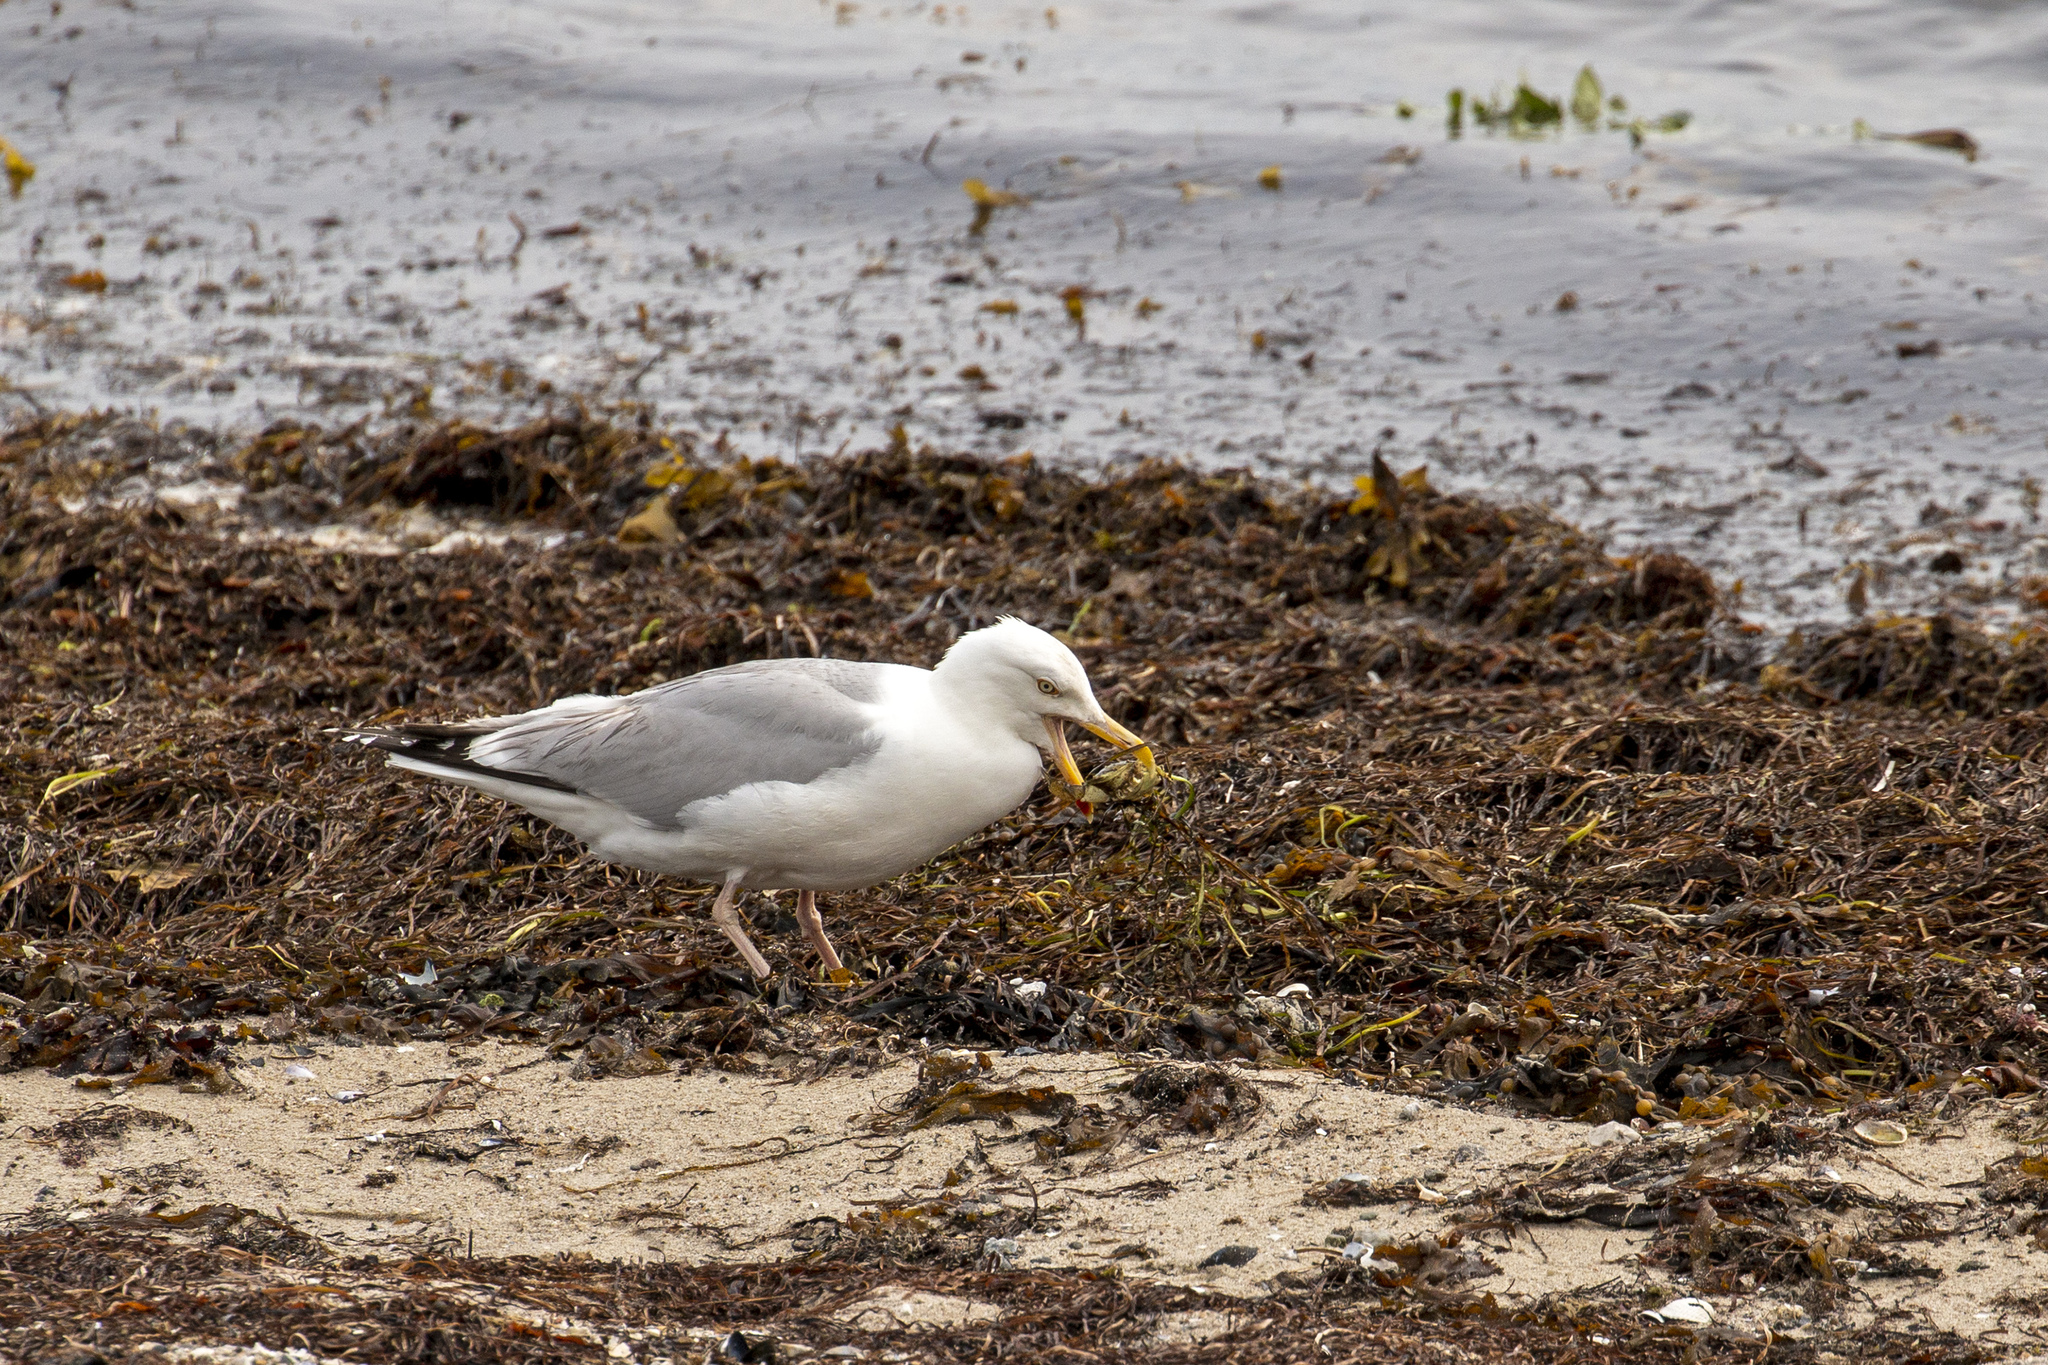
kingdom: Animalia
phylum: Chordata
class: Aves
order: Charadriiformes
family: Laridae
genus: Larus
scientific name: Larus argentatus
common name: Herring gull
